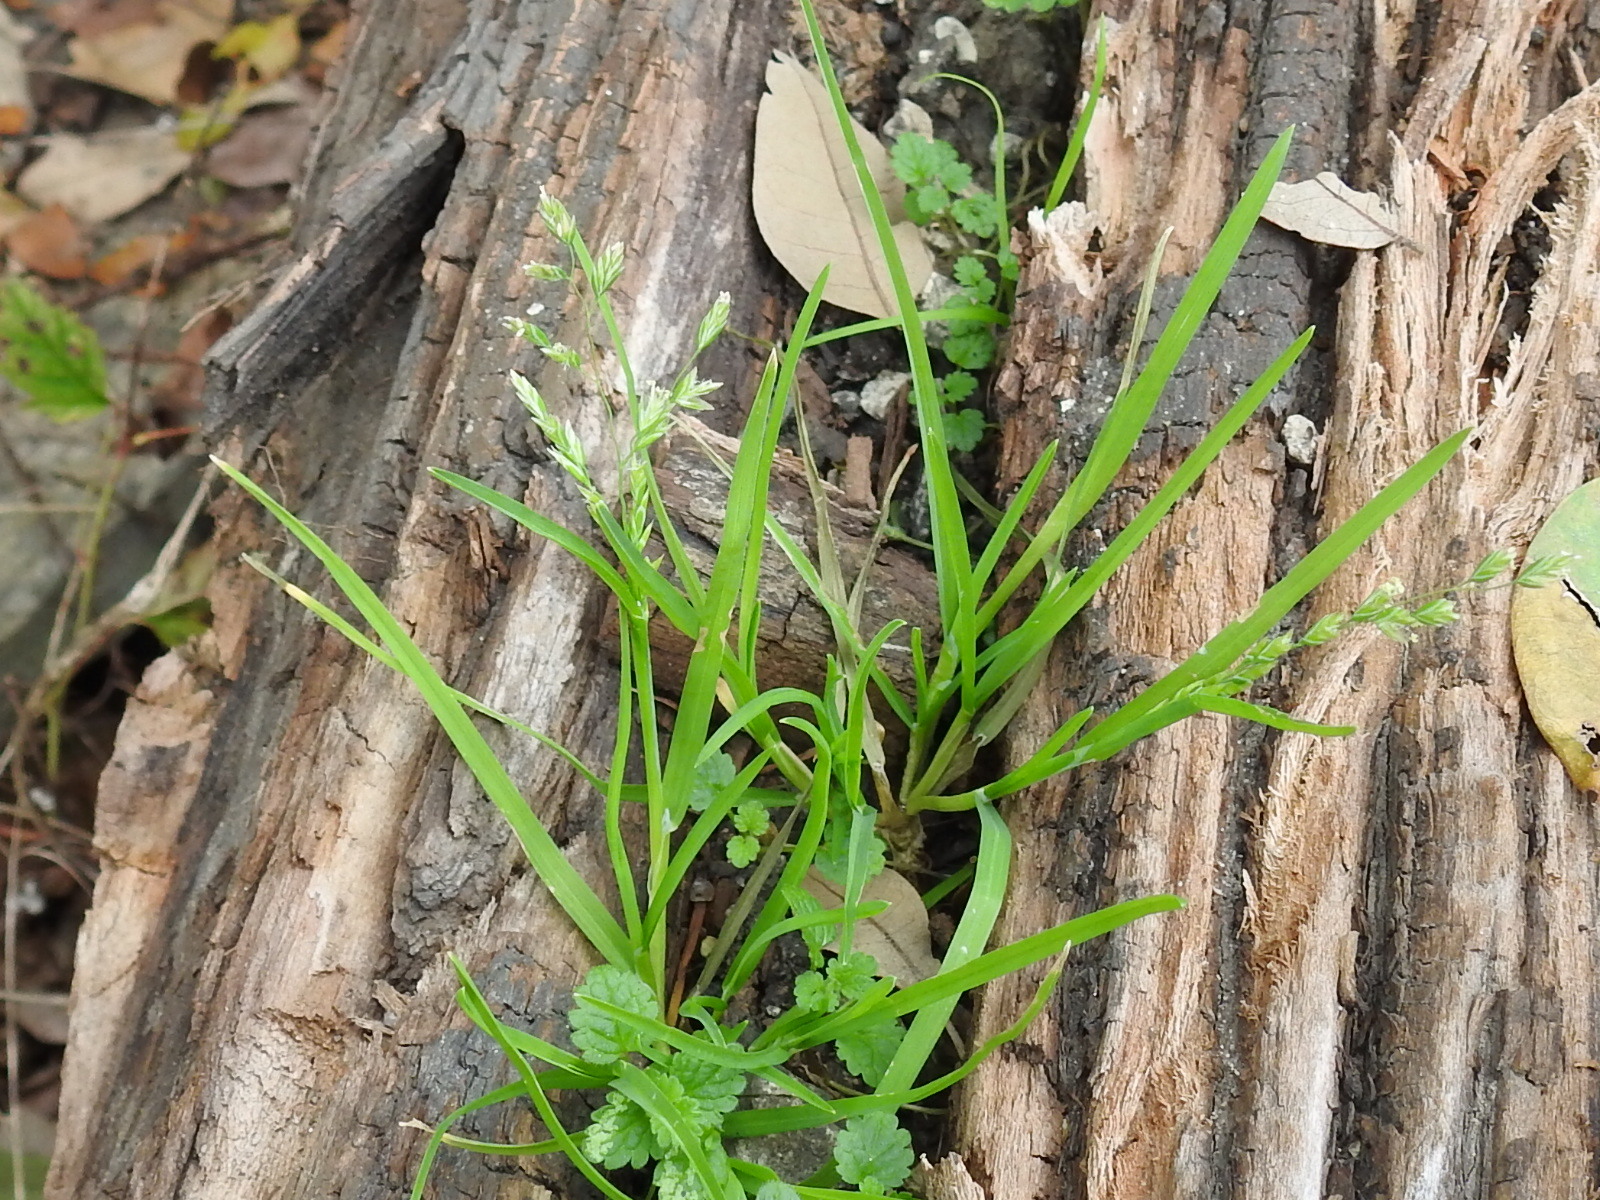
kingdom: Plantae
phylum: Tracheophyta
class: Liliopsida
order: Poales
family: Poaceae
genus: Poa
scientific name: Poa annua
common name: Annual bluegrass
